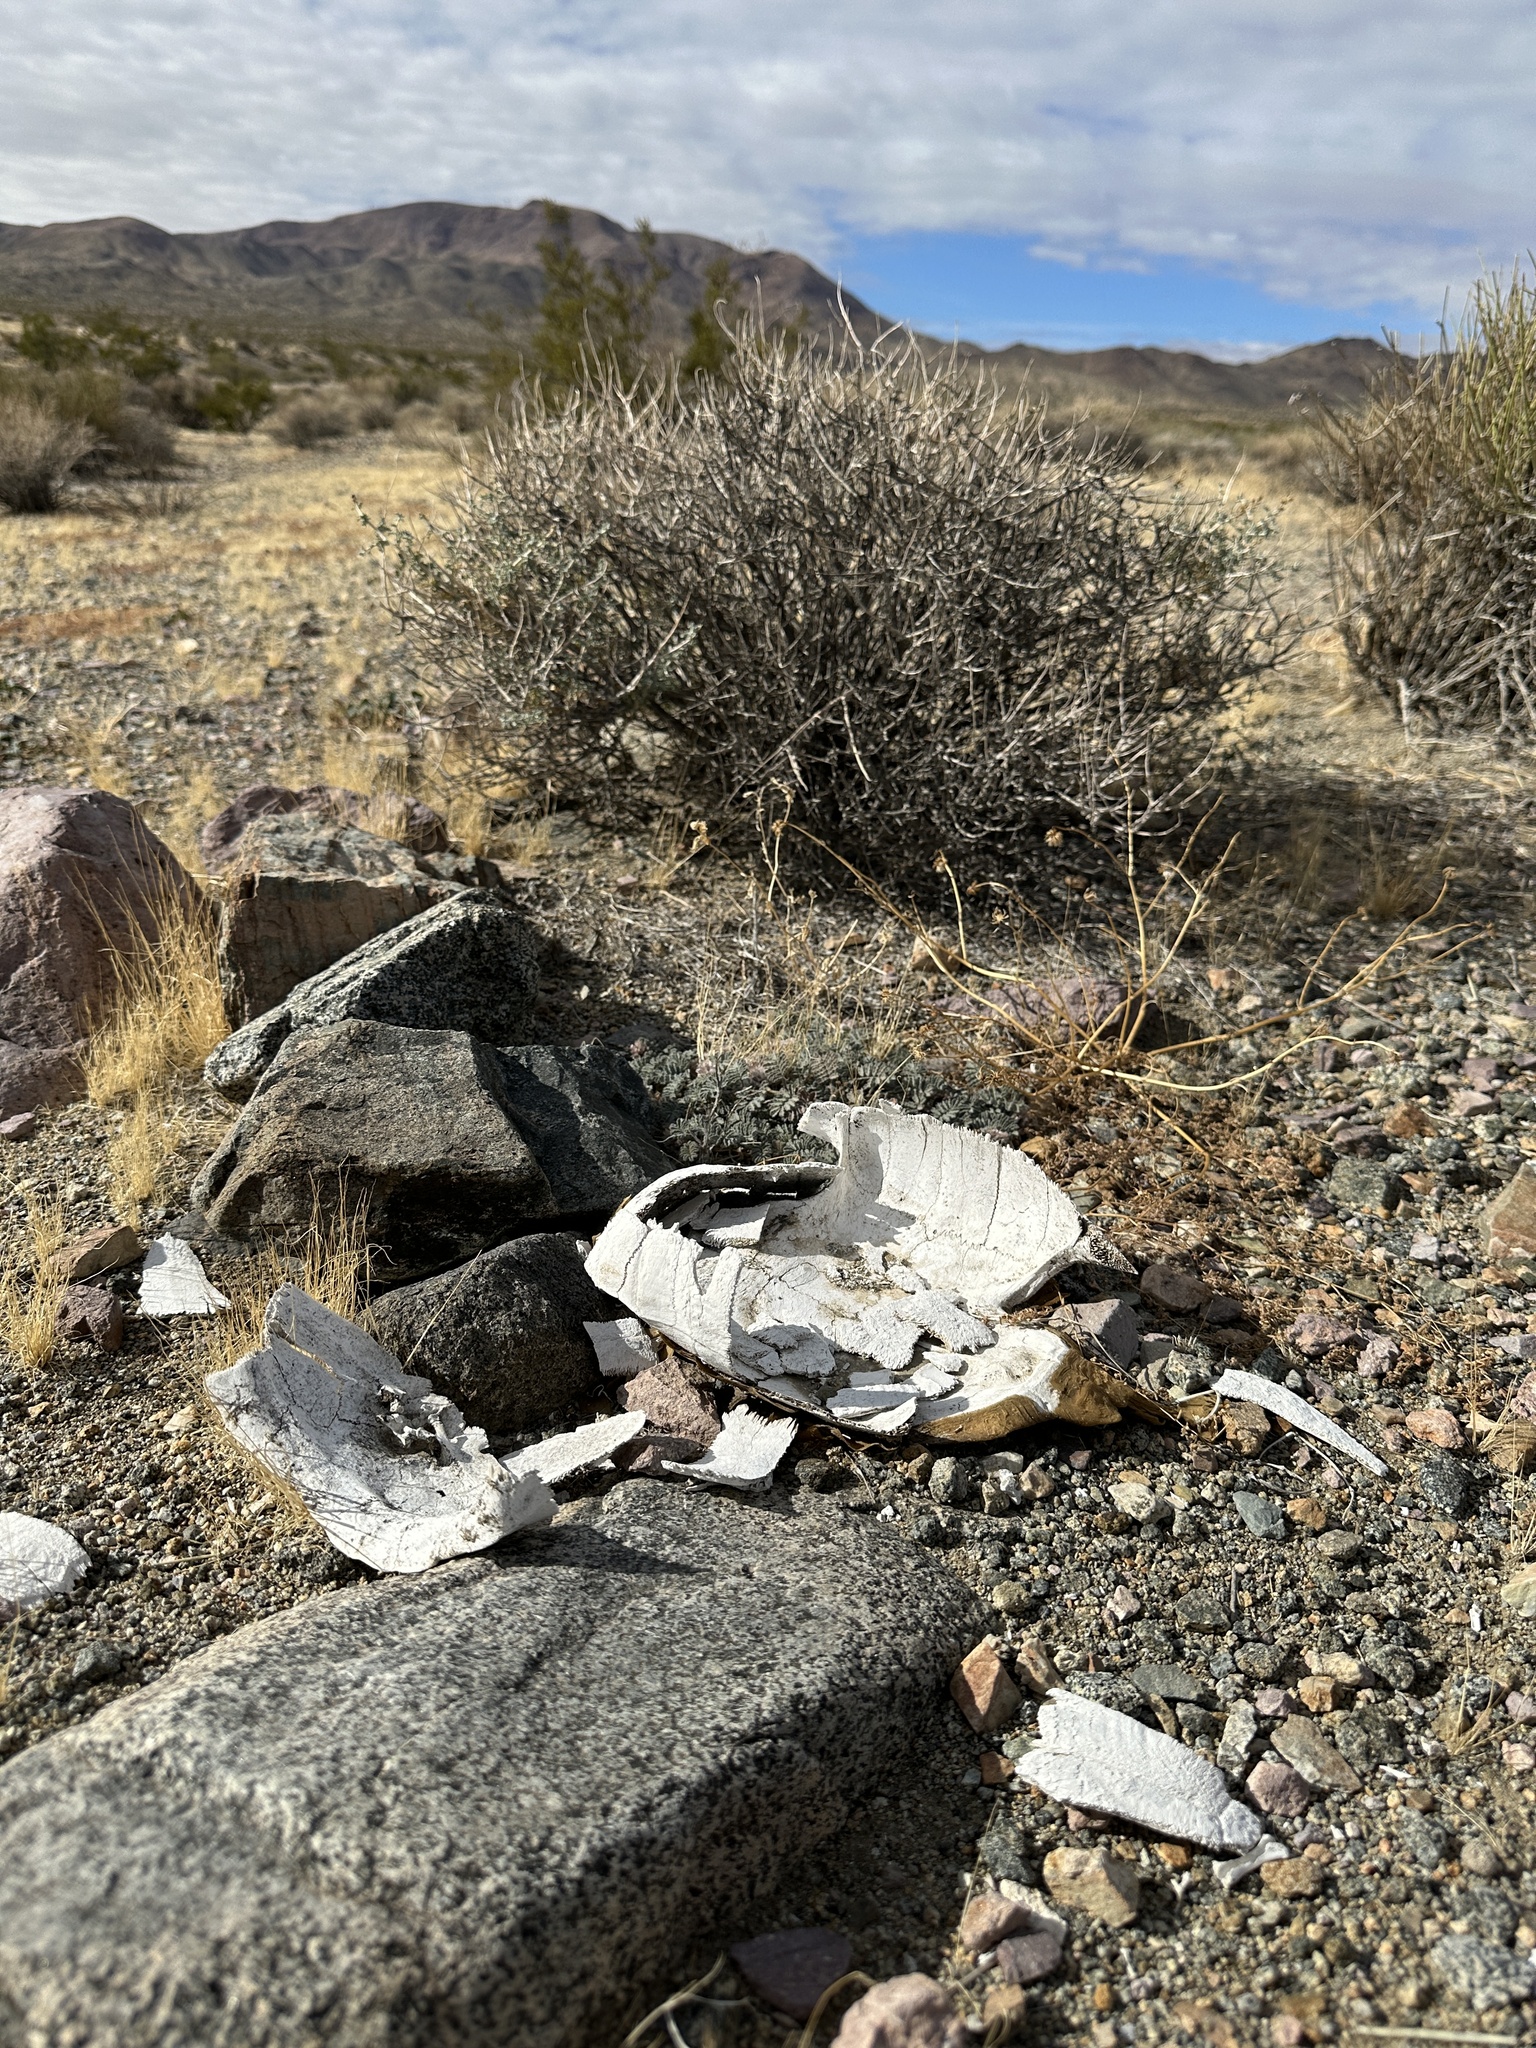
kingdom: Animalia
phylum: Chordata
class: Testudines
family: Testudinidae
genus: Gopherus
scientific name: Gopherus agassizii
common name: Mojave desert tortoise
